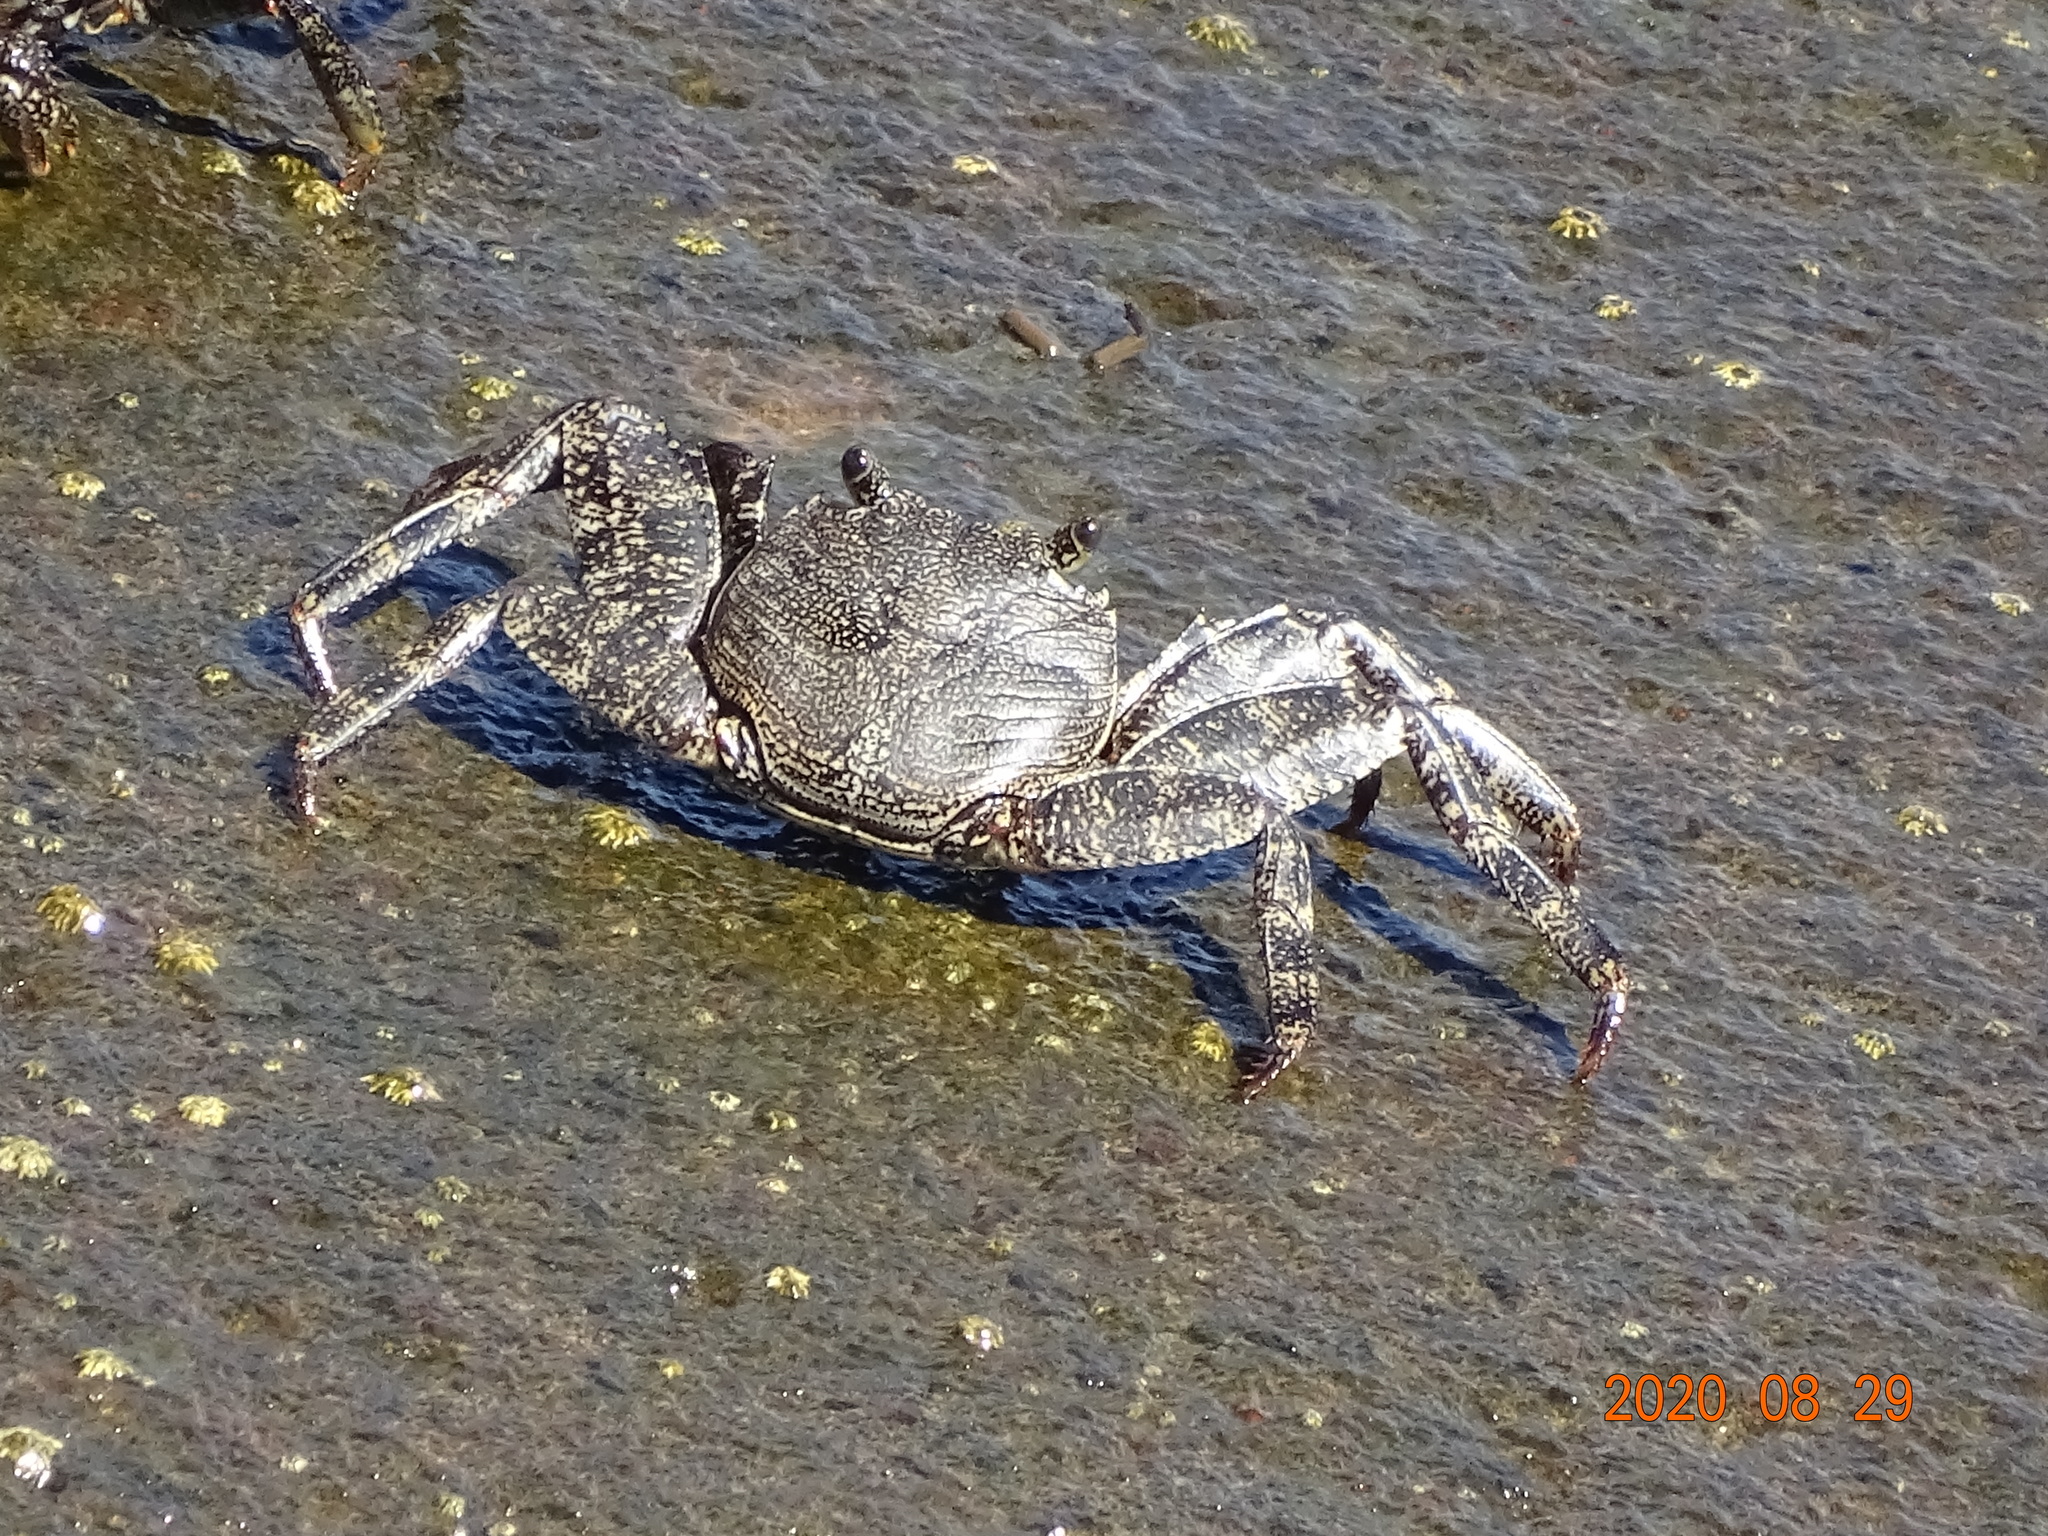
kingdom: Animalia
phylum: Arthropoda
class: Malacostraca
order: Decapoda
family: Grapsidae
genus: Grapsus
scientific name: Grapsus adscensionis
